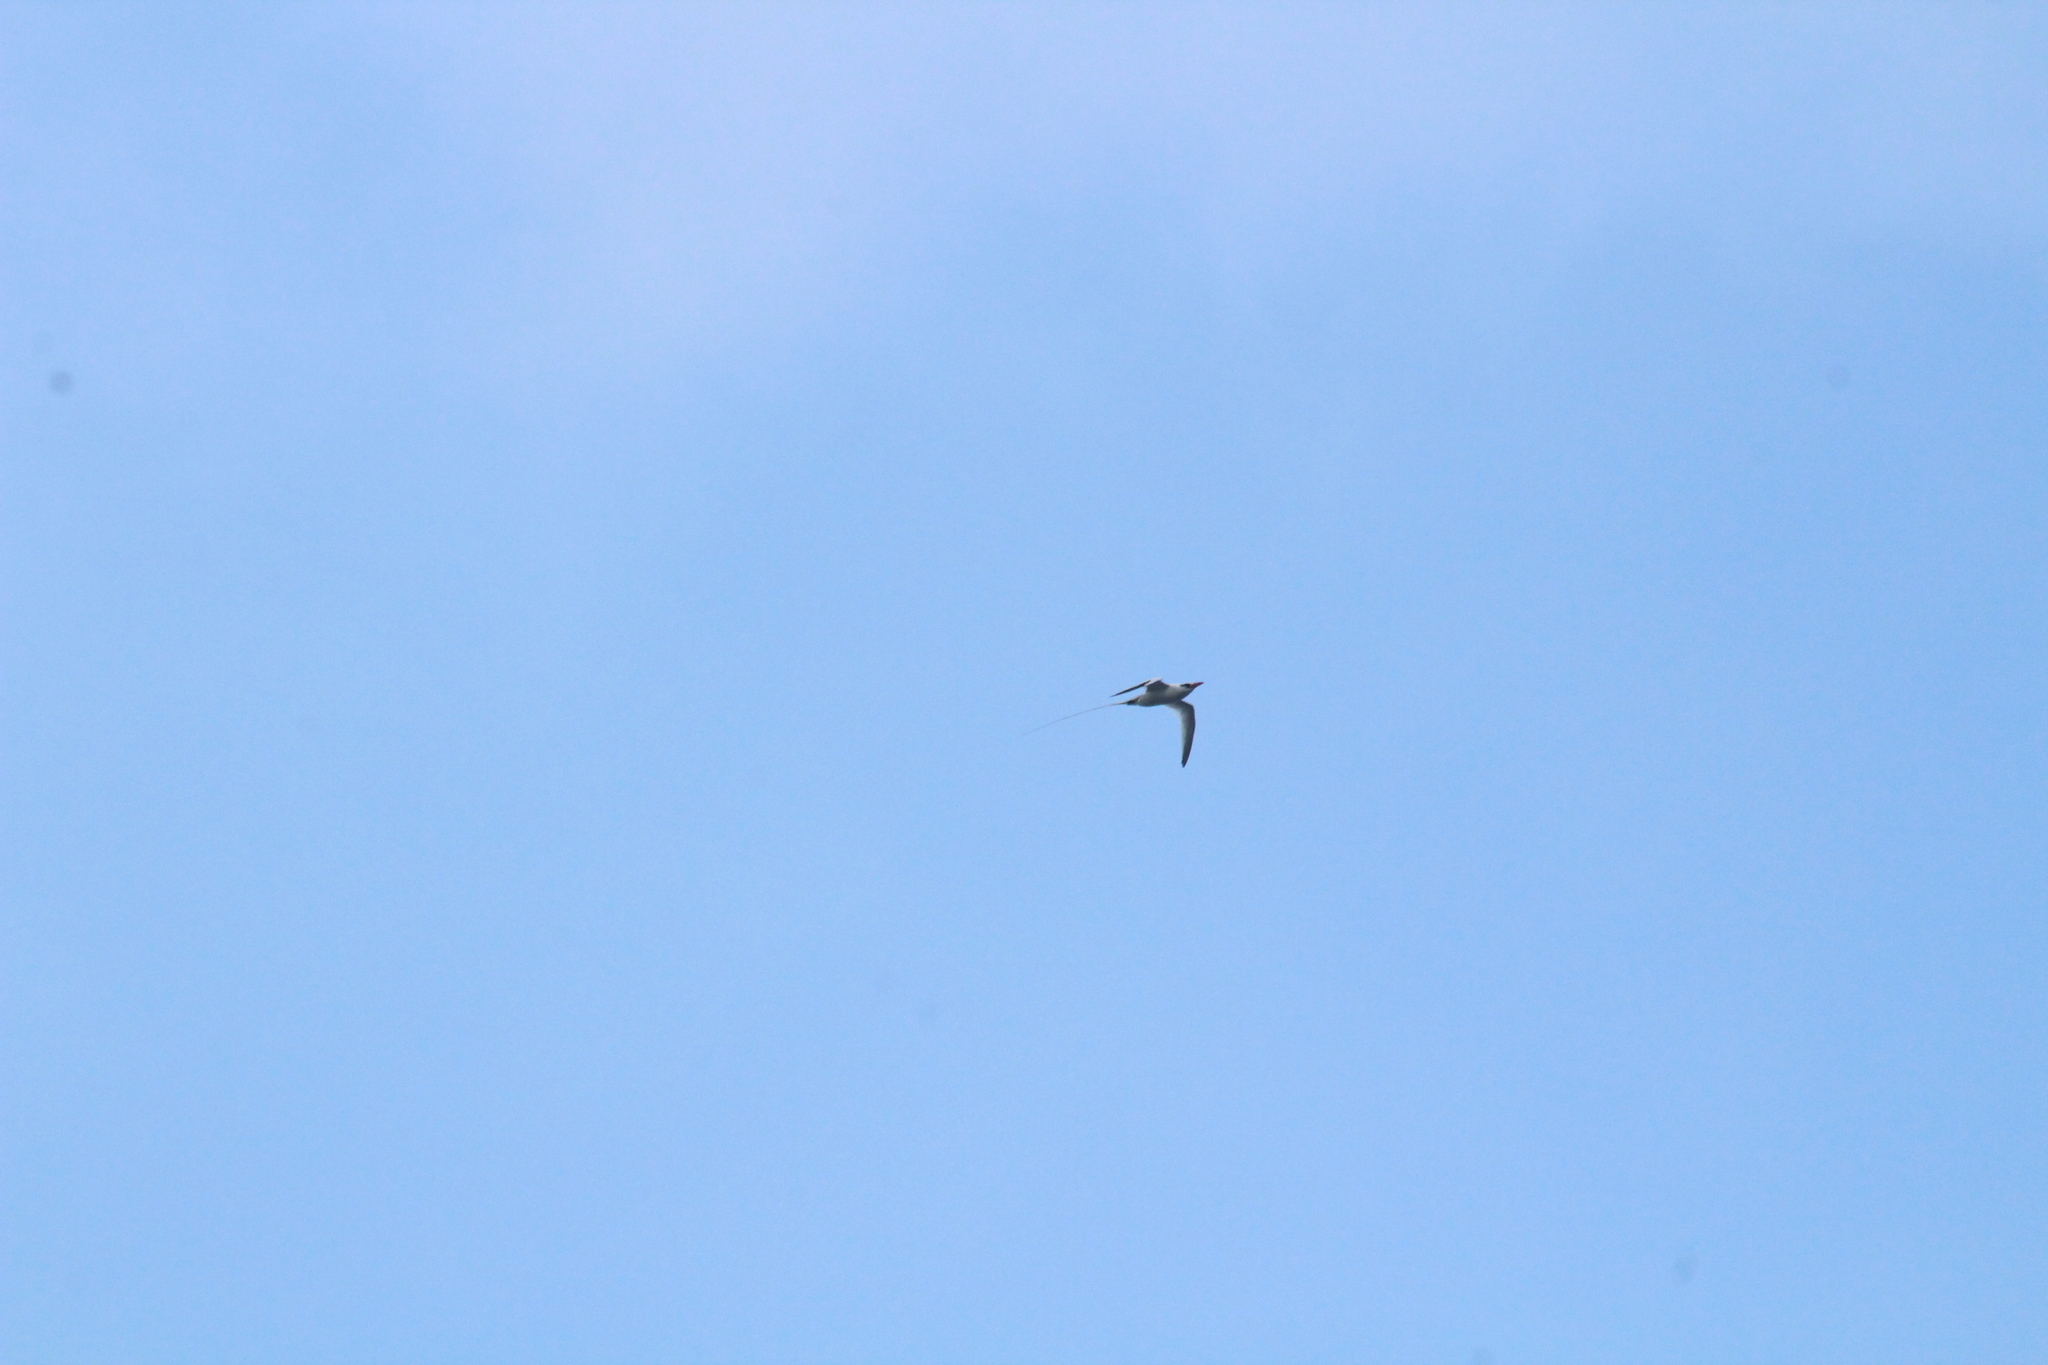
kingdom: Animalia
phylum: Chordata
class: Aves
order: Phaethontiformes
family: Phaethontidae
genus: Phaethon
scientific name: Phaethon aethereus
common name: Red-billed tropicbird
